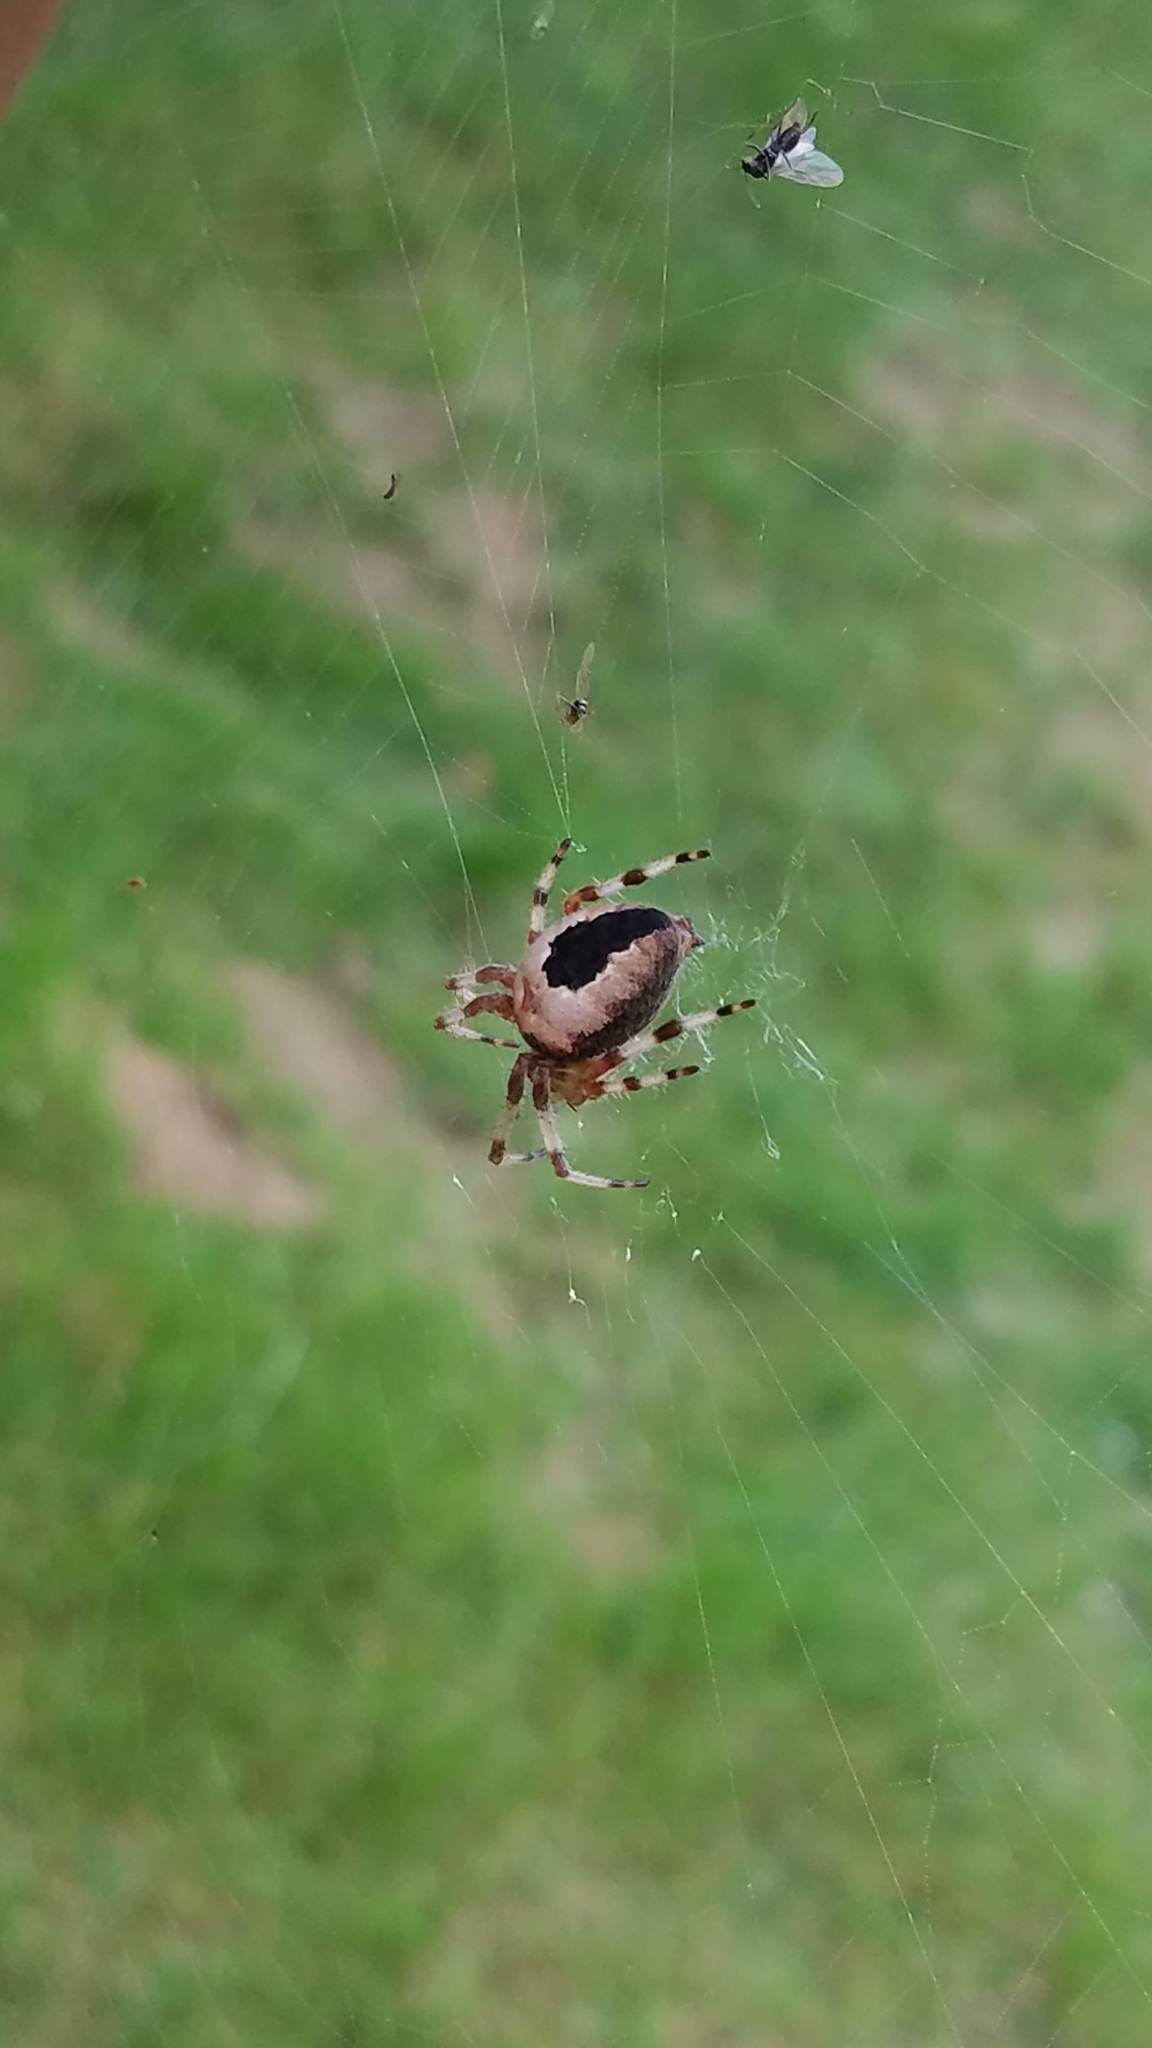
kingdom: Animalia
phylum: Arthropoda
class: Arachnida
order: Araneae
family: Araneidae
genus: Araneus
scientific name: Araneus marmoreus
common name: Marbled orbweaver
